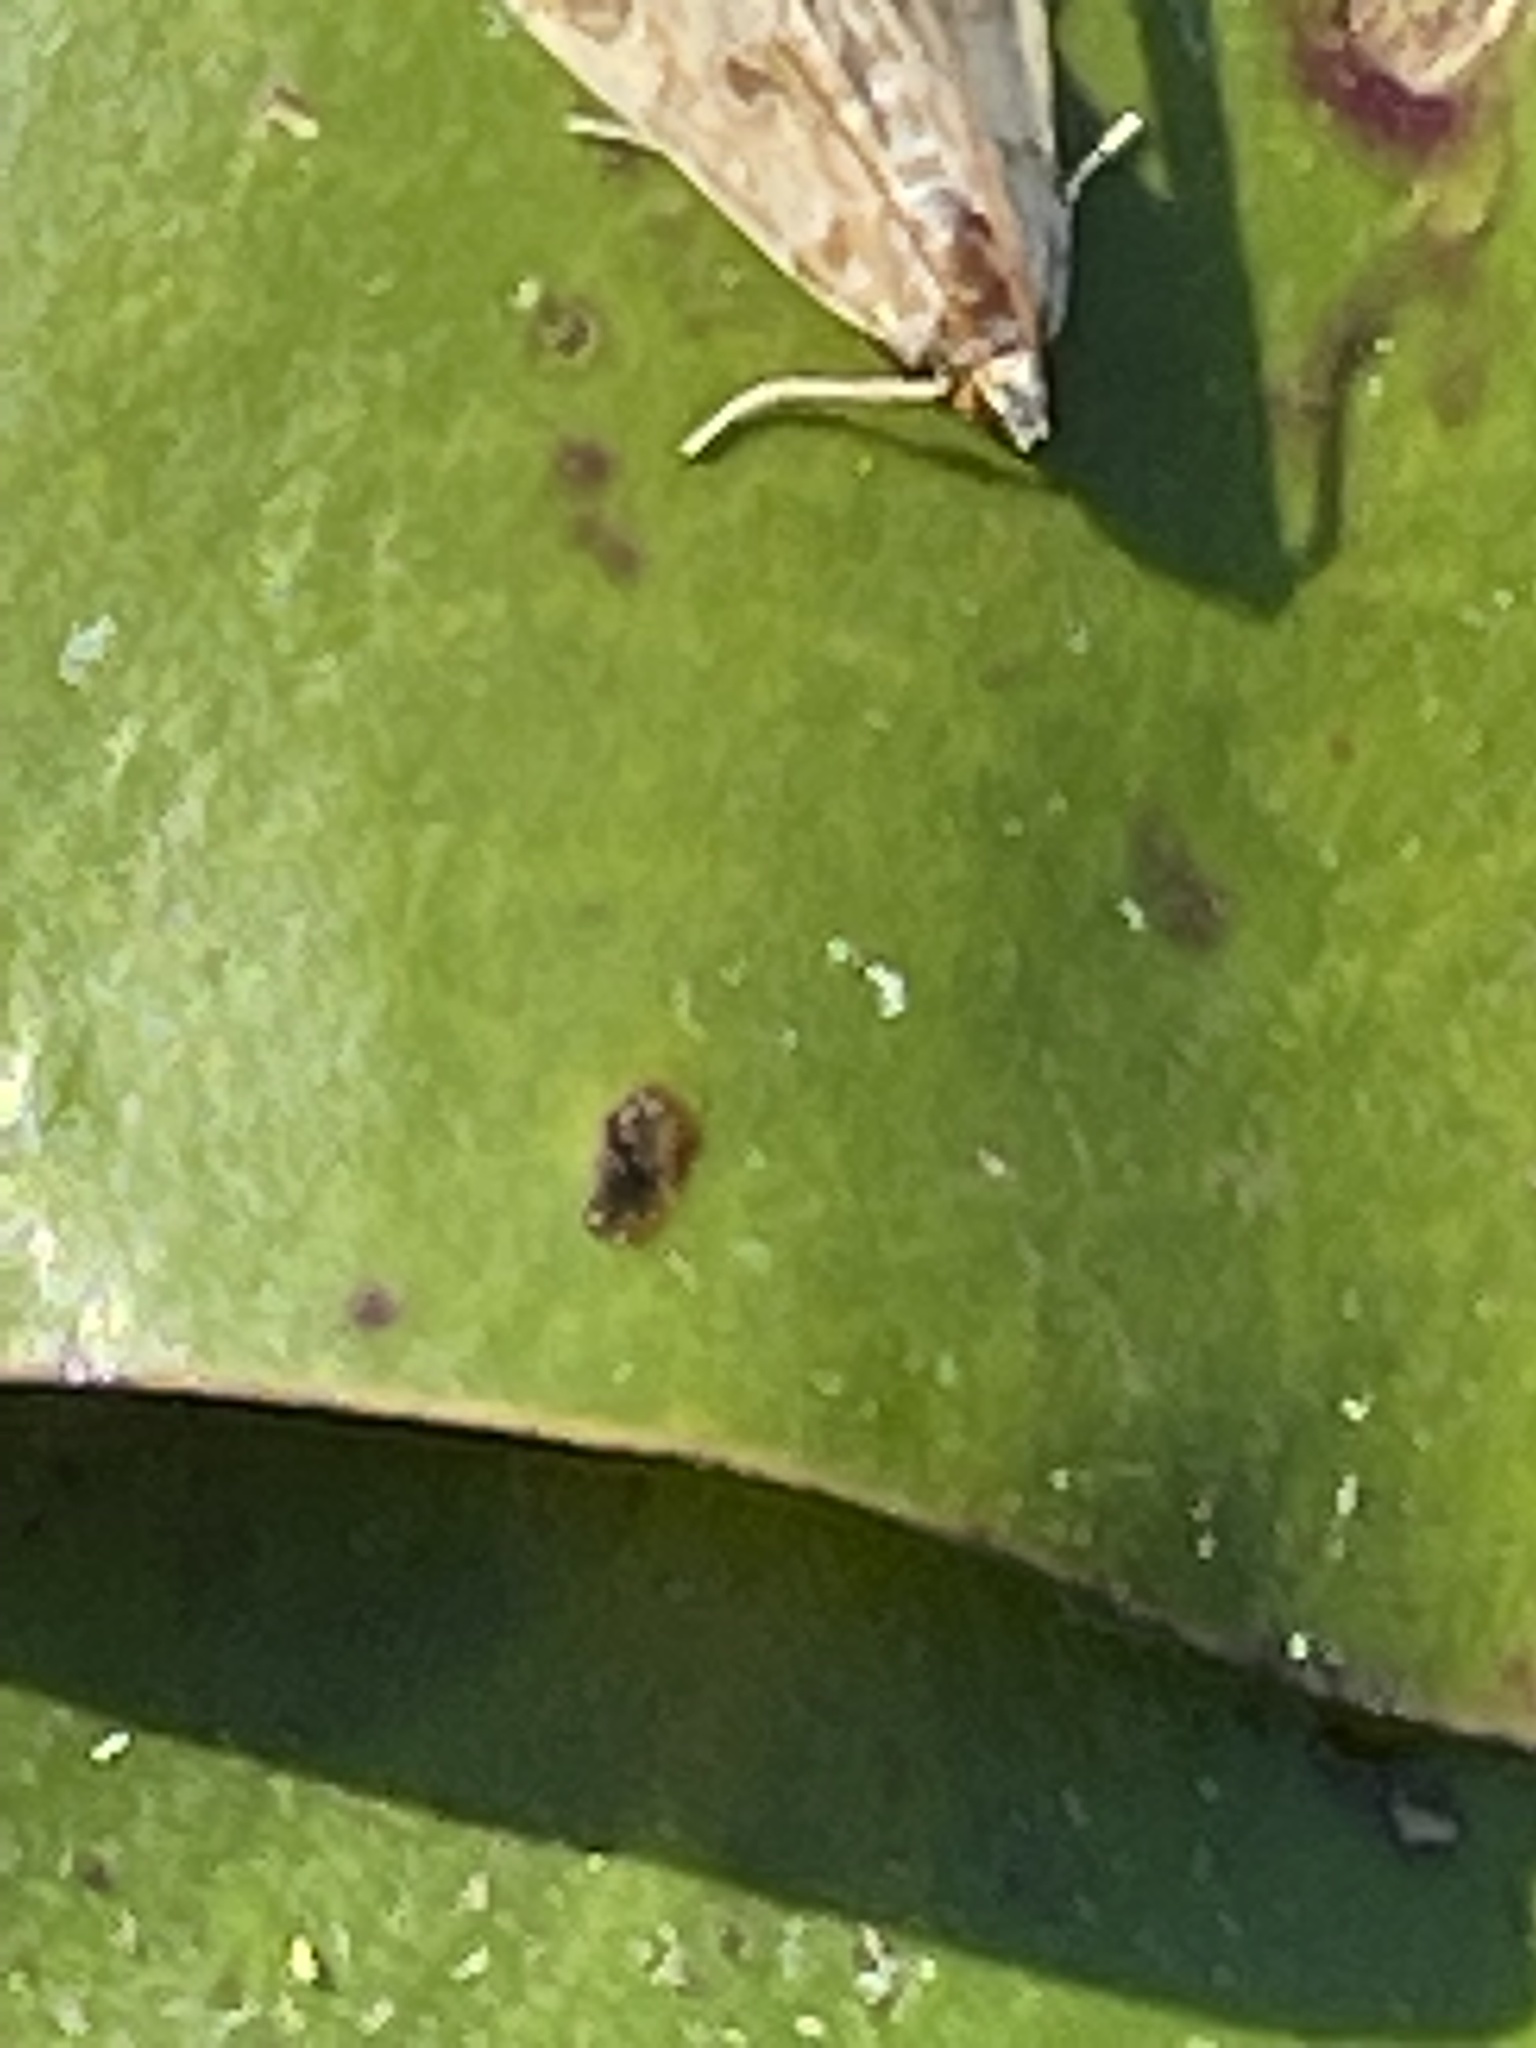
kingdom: Animalia
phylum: Arthropoda
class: Insecta
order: Lepidoptera
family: Crambidae
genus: Elophila
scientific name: Elophila gyralis
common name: Waterlily borer moth
